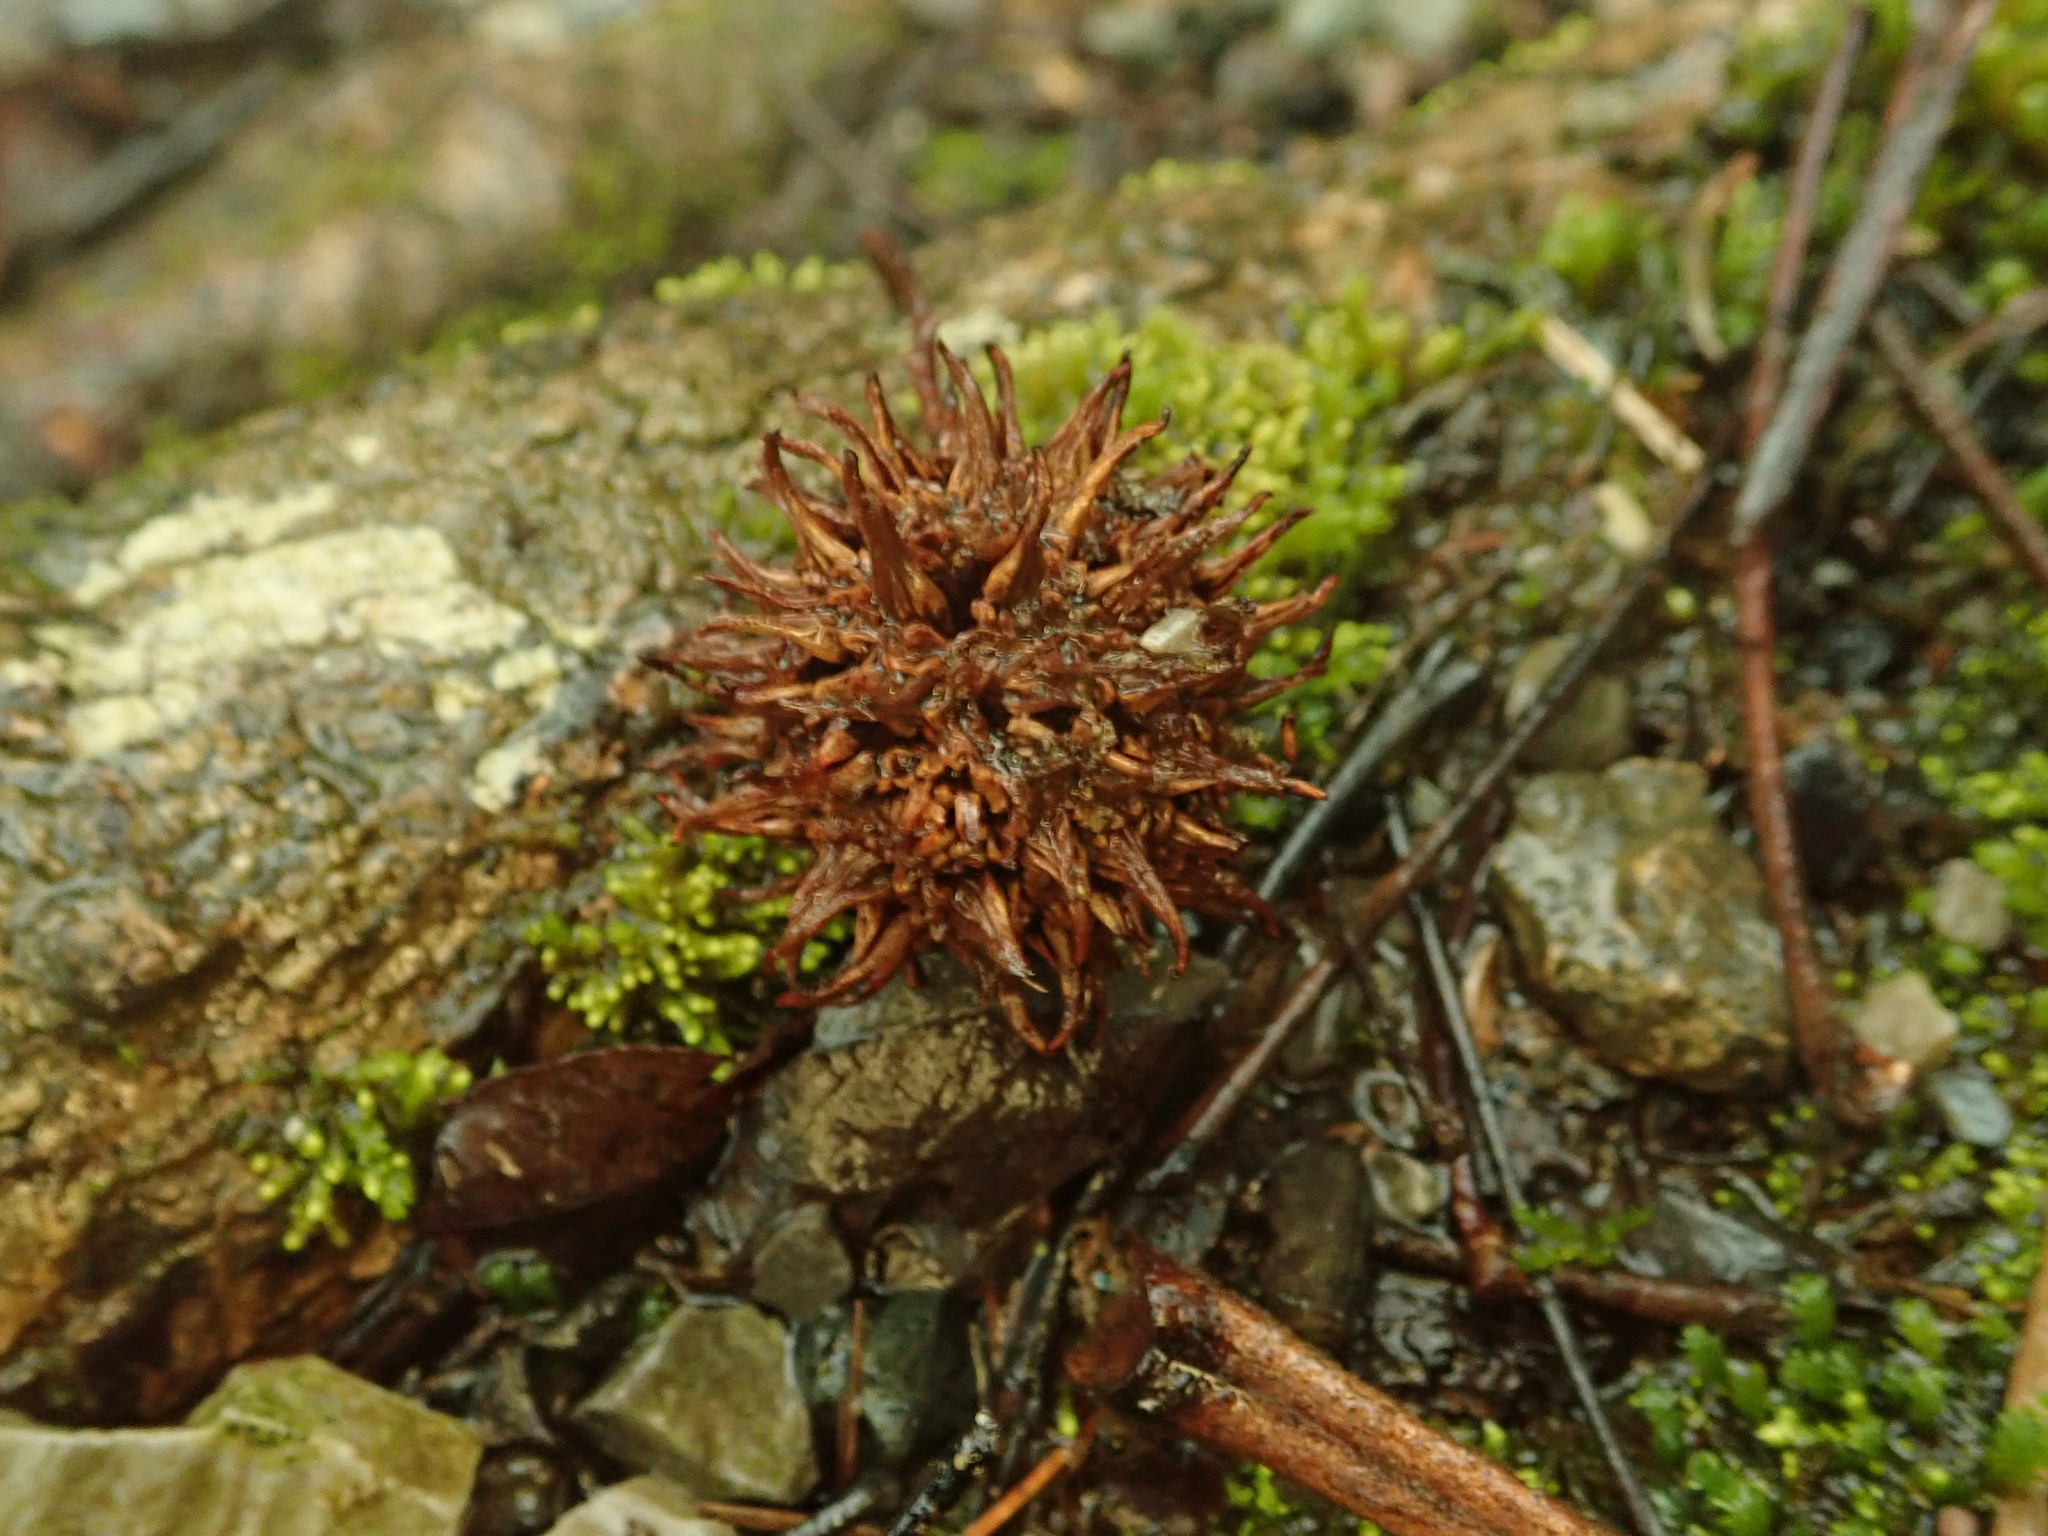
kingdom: Plantae
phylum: Tracheophyta
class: Magnoliopsida
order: Saxifragales
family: Altingiaceae
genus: Liquidambar
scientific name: Liquidambar styraciflua
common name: Sweet gum
